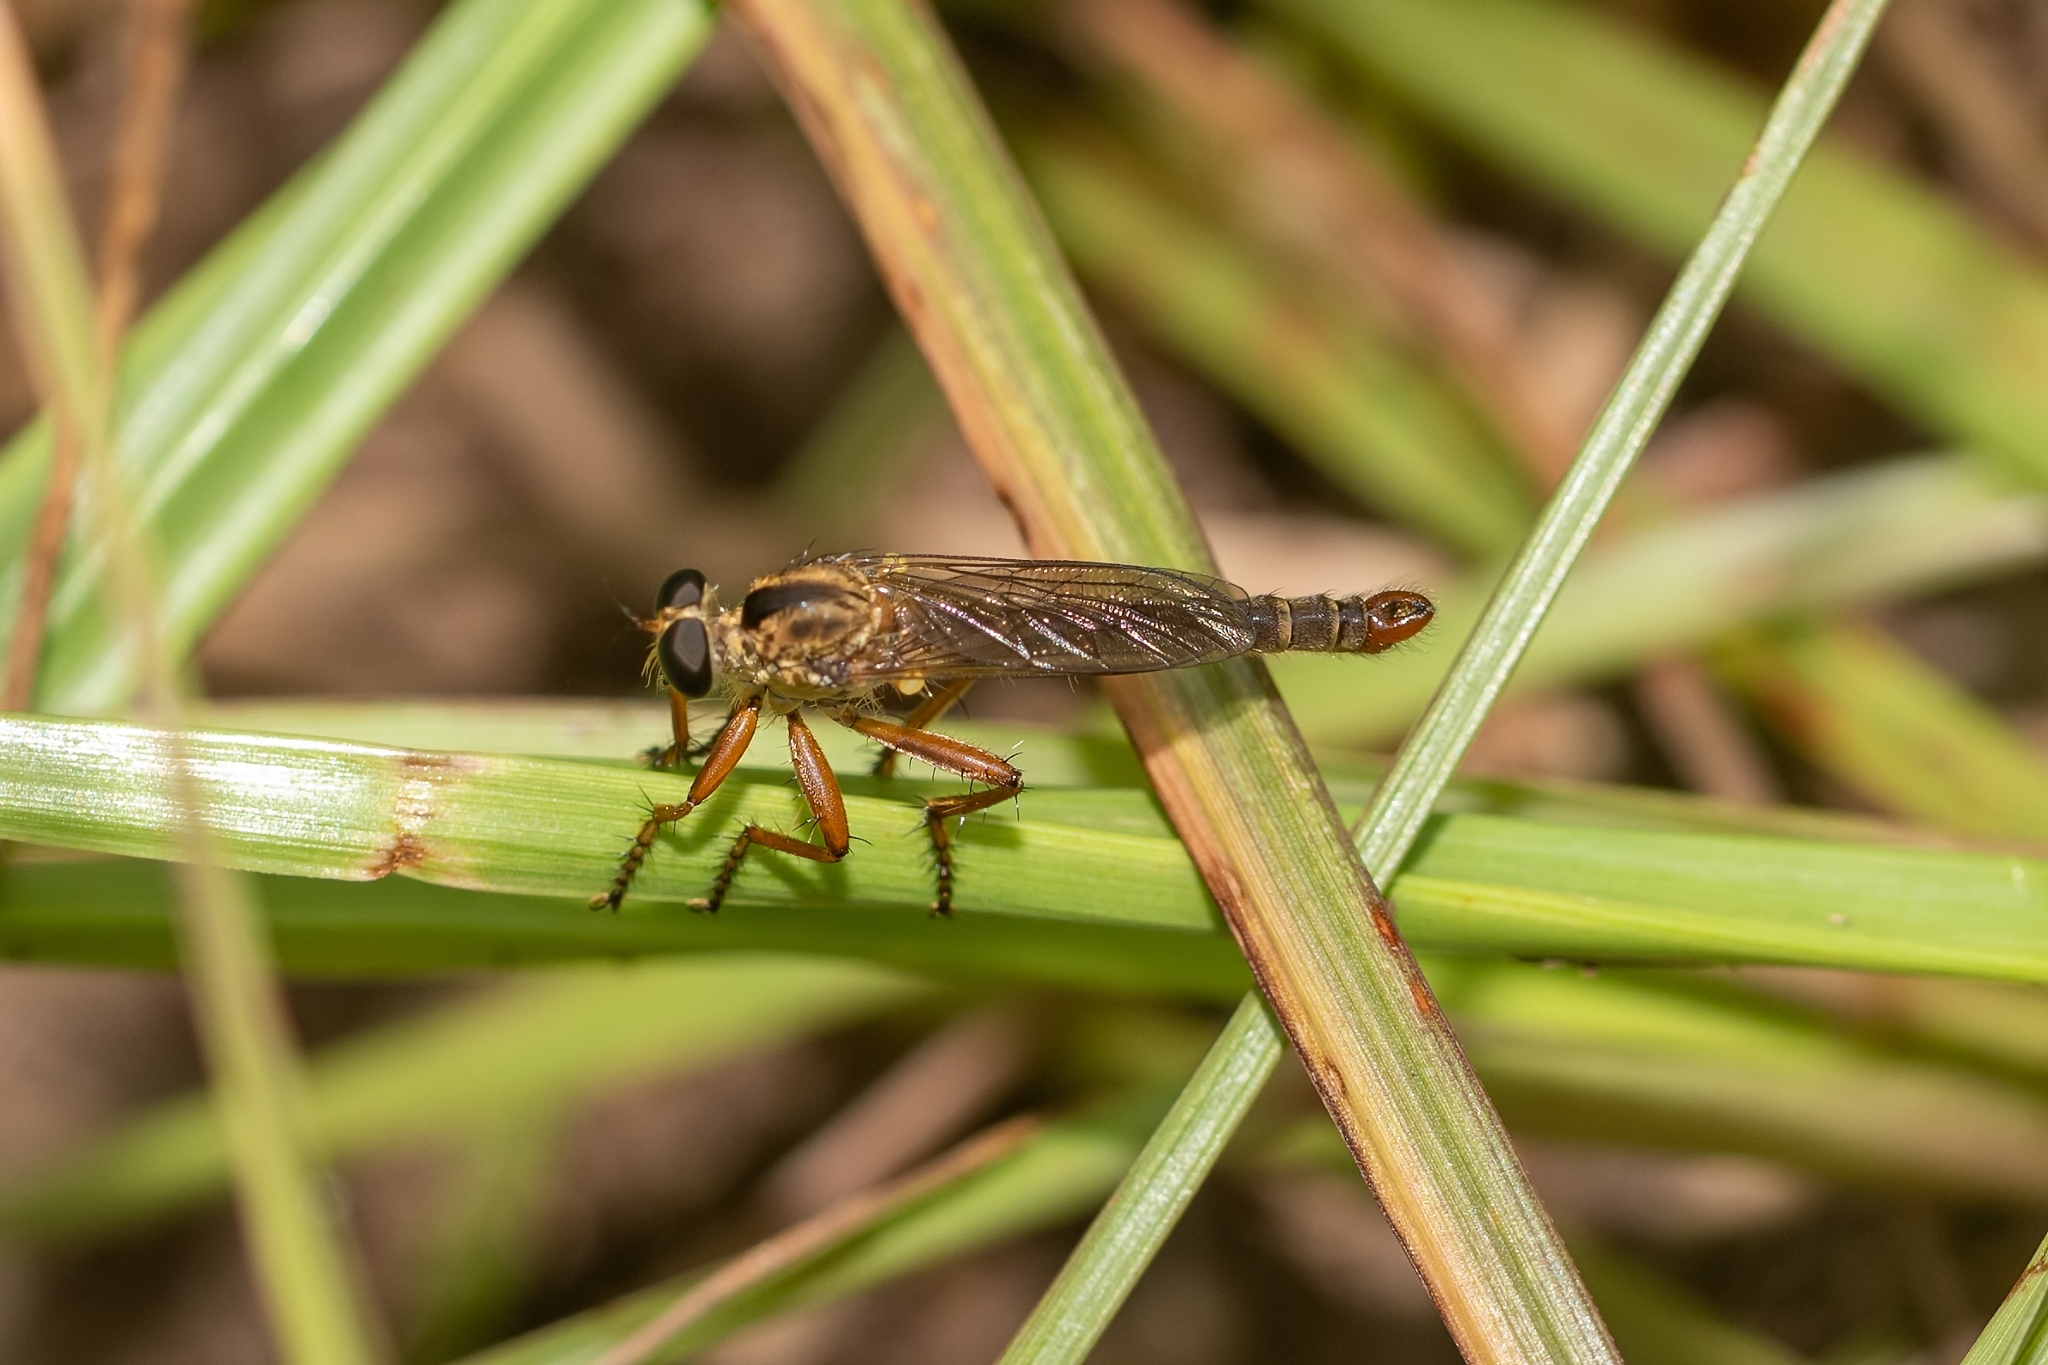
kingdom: Animalia
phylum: Arthropoda
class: Insecta
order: Diptera
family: Asilidae
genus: Polacantha
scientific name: Polacantha gracilis
